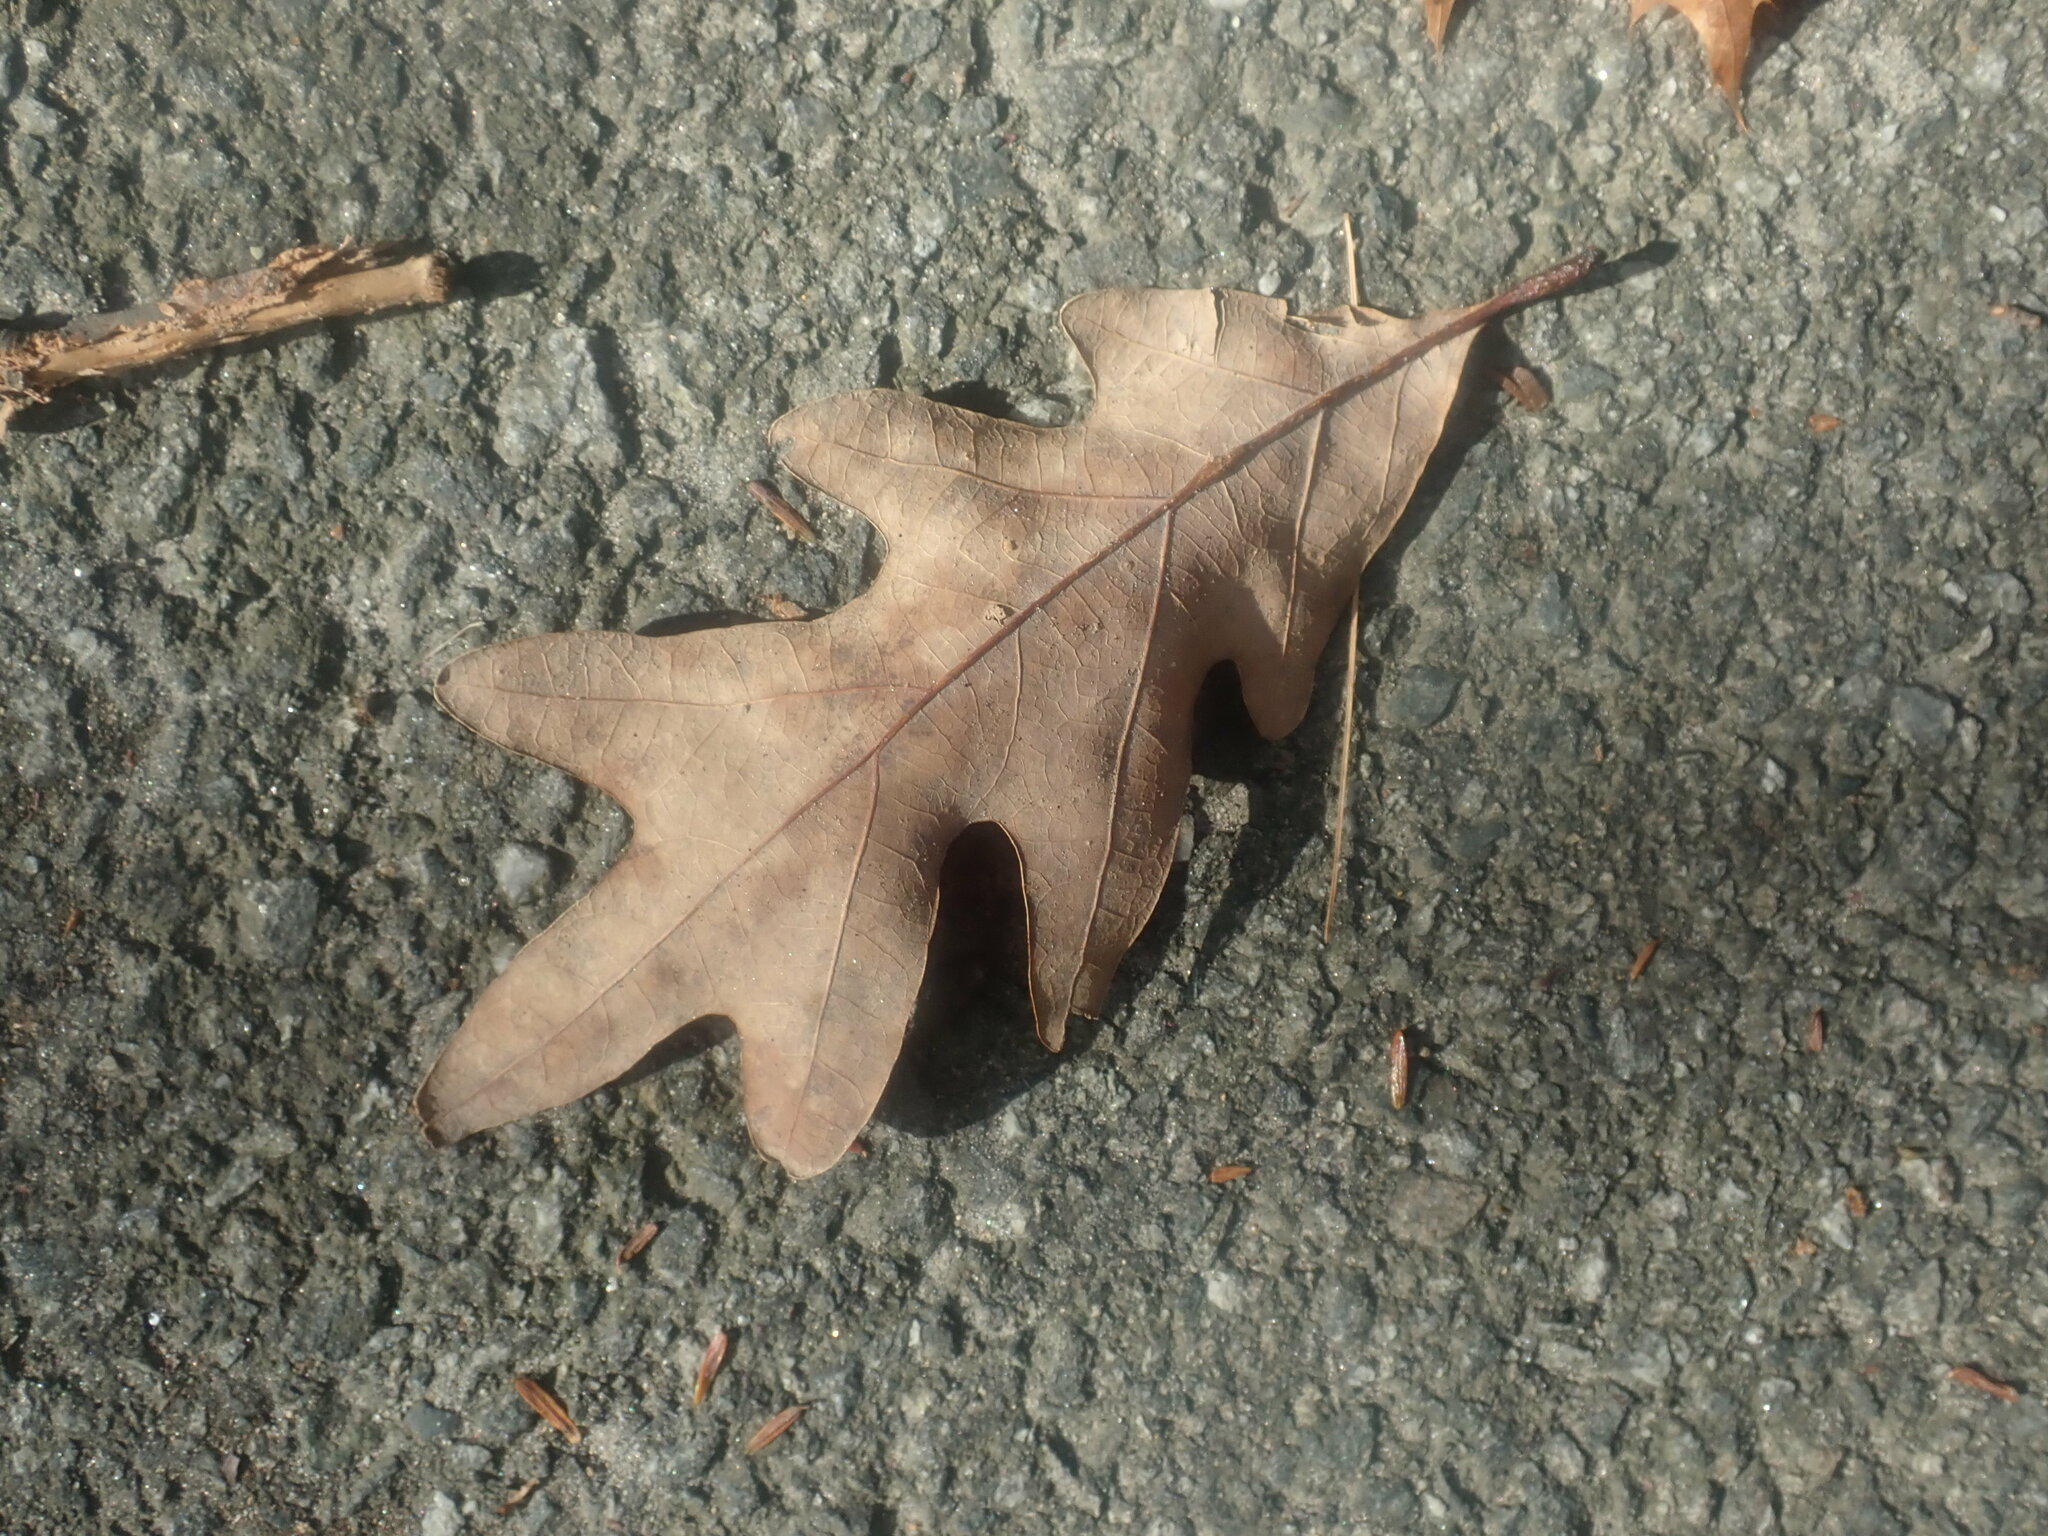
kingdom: Plantae
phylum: Tracheophyta
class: Magnoliopsida
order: Fagales
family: Fagaceae
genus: Quercus
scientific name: Quercus alba
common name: White oak
